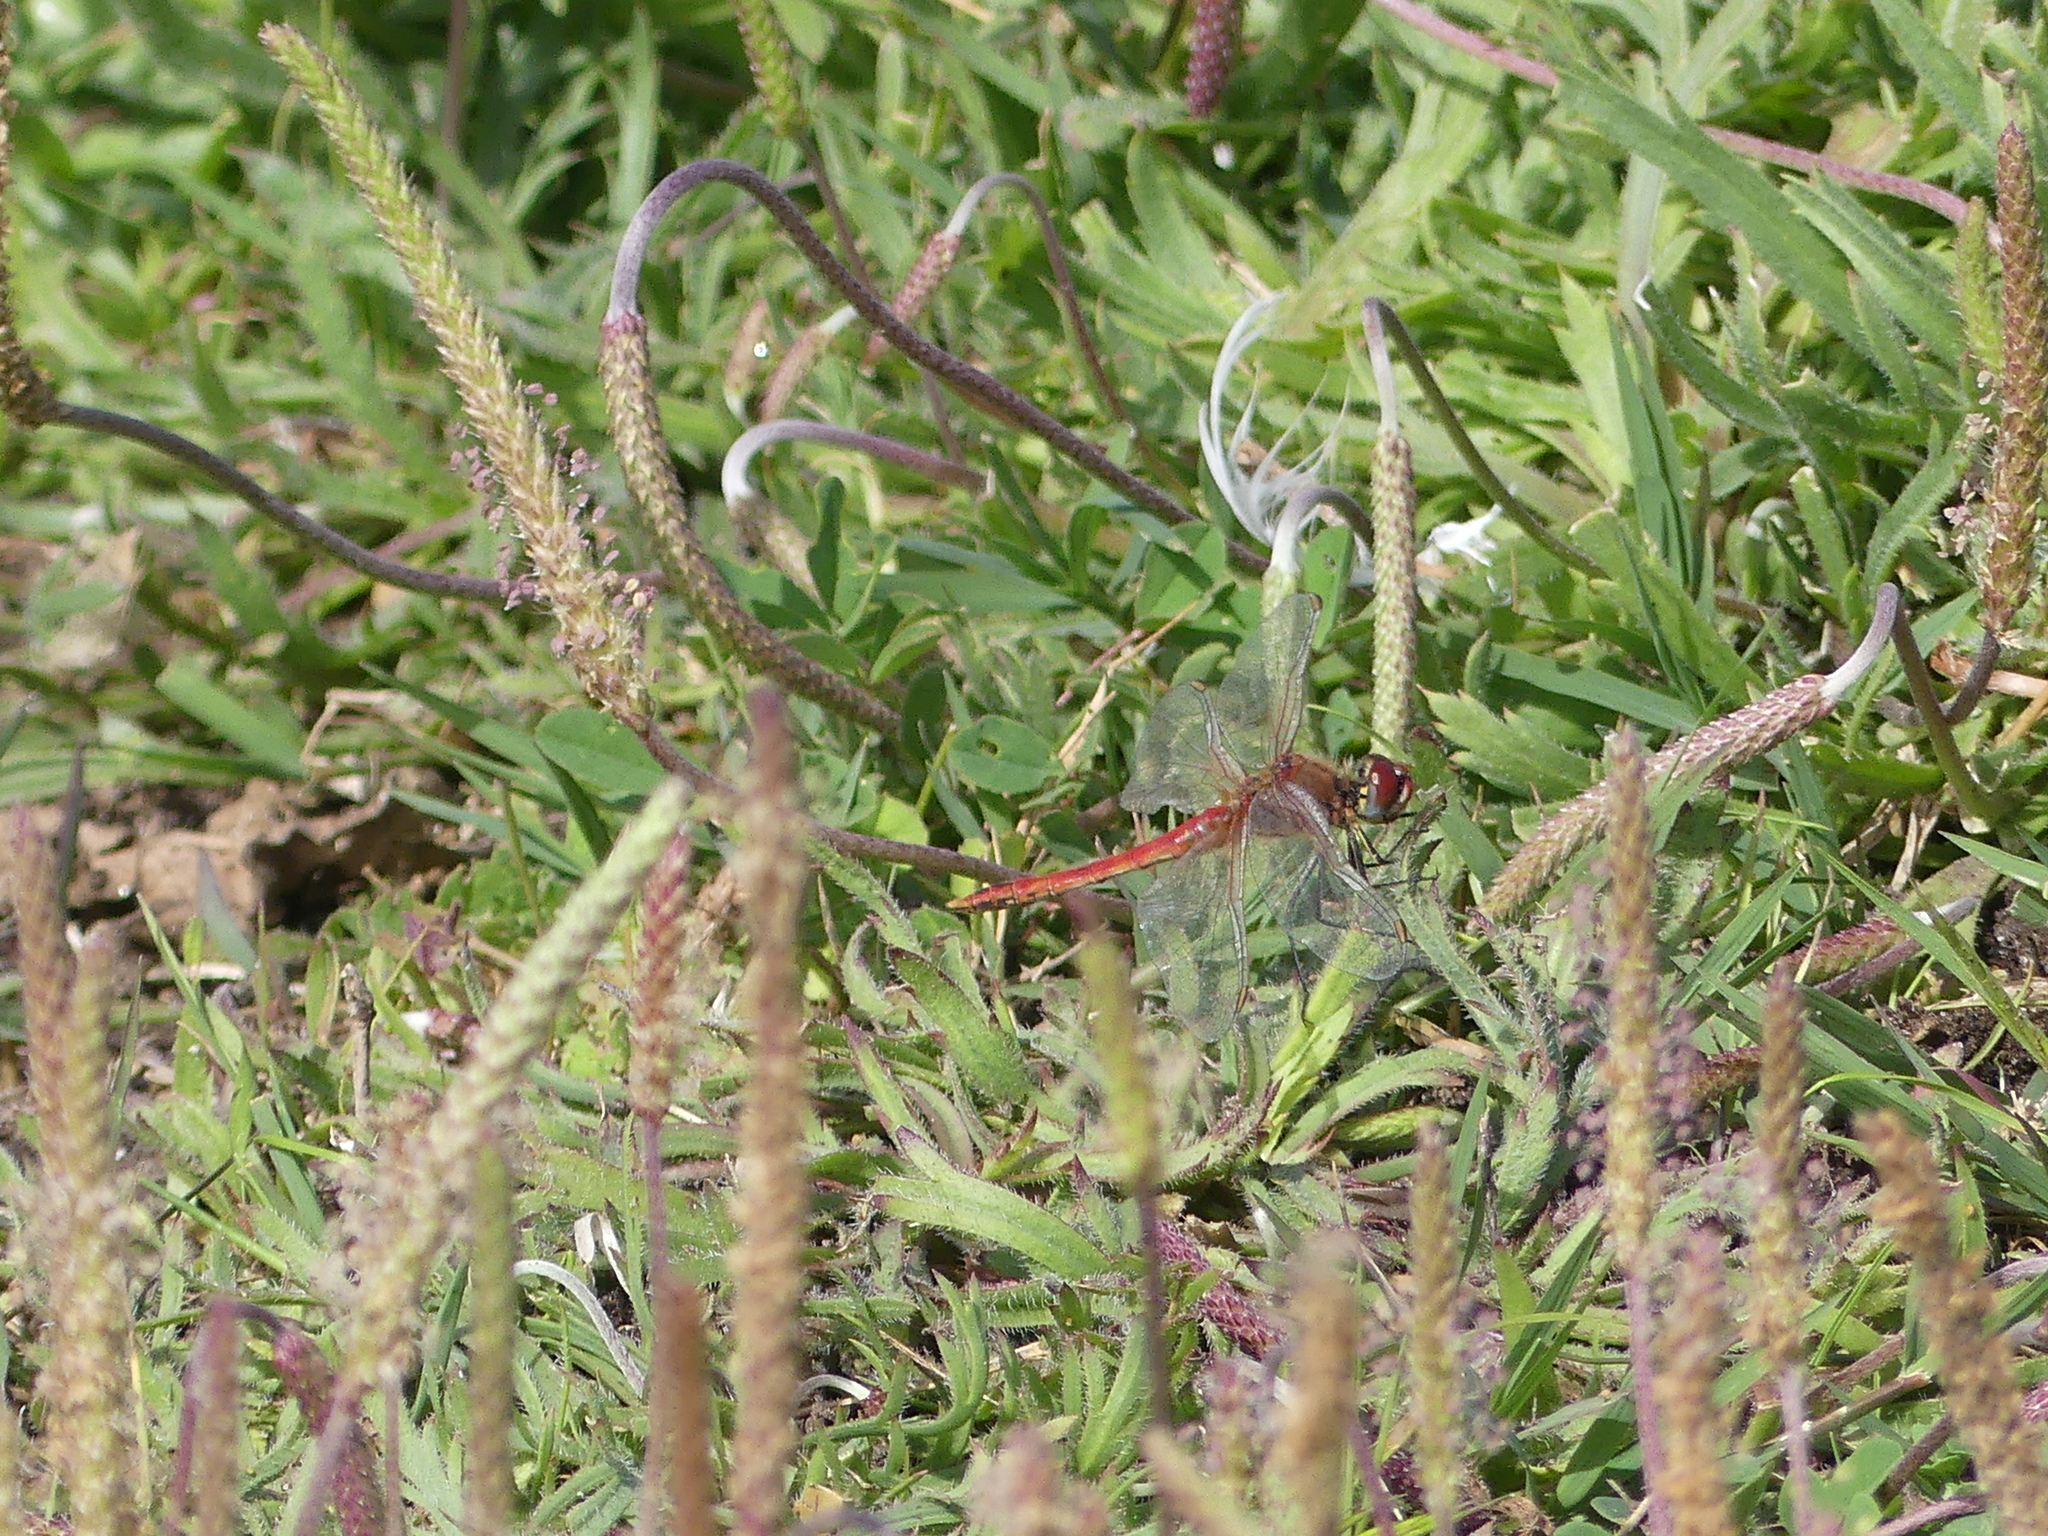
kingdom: Animalia
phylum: Arthropoda
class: Insecta
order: Odonata
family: Libellulidae
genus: Sympetrum
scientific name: Sympetrum fonscolombii
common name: Red-veined darter
